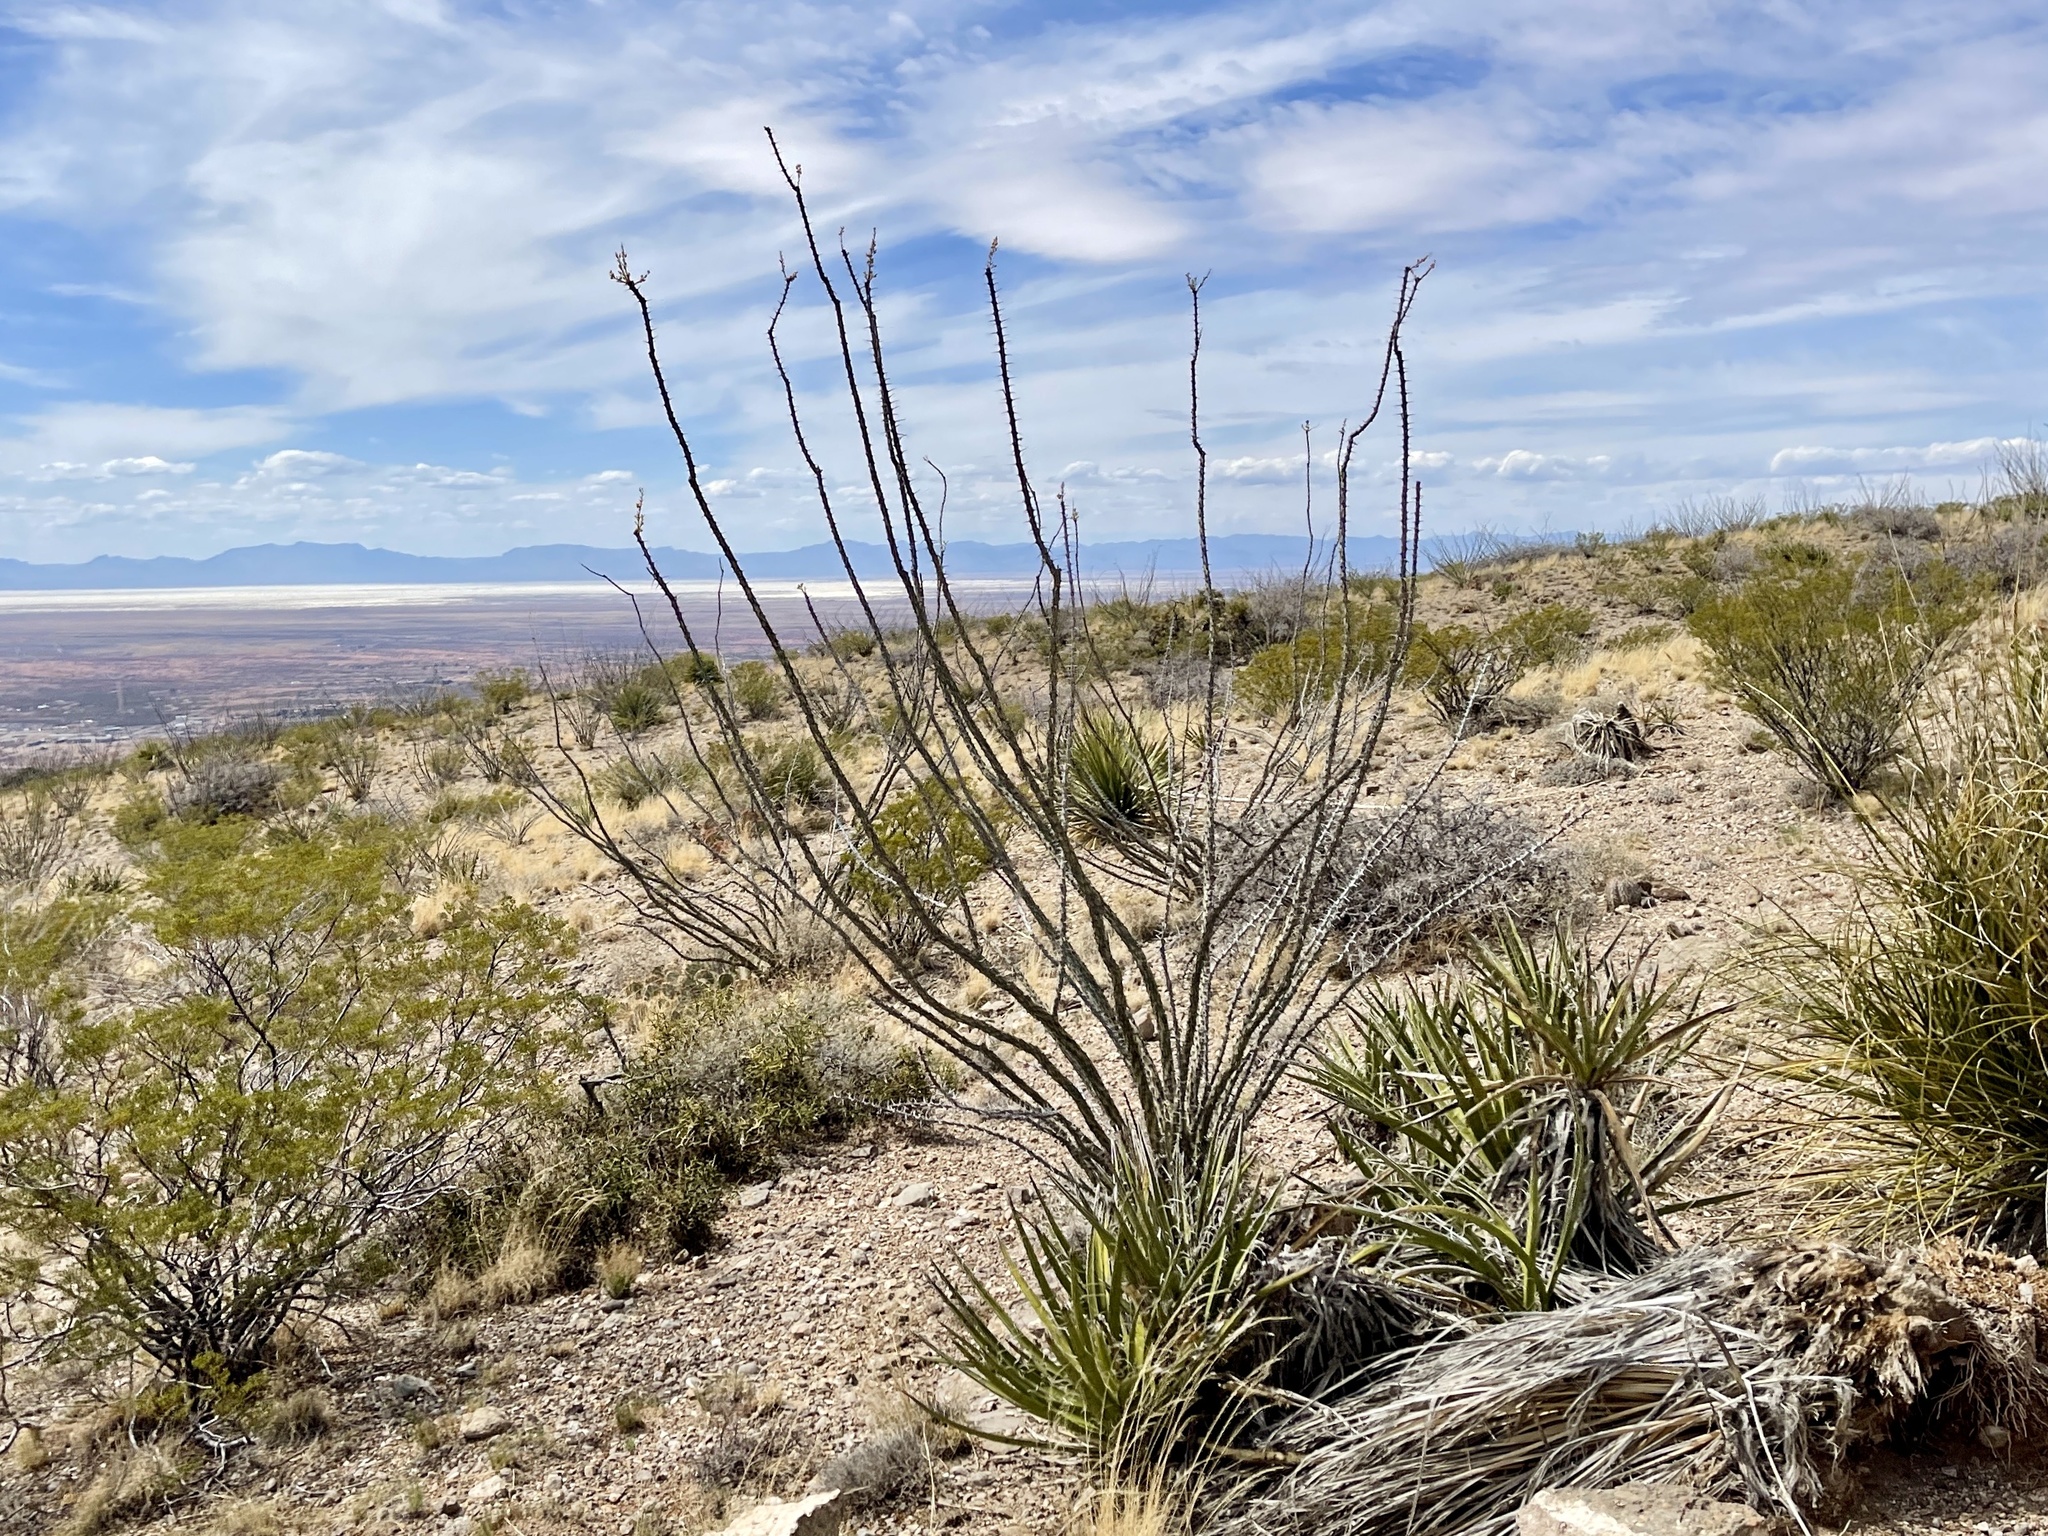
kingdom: Plantae
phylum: Tracheophyta
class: Magnoliopsida
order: Ericales
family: Fouquieriaceae
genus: Fouquieria
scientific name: Fouquieria splendens
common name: Vine-cactus
